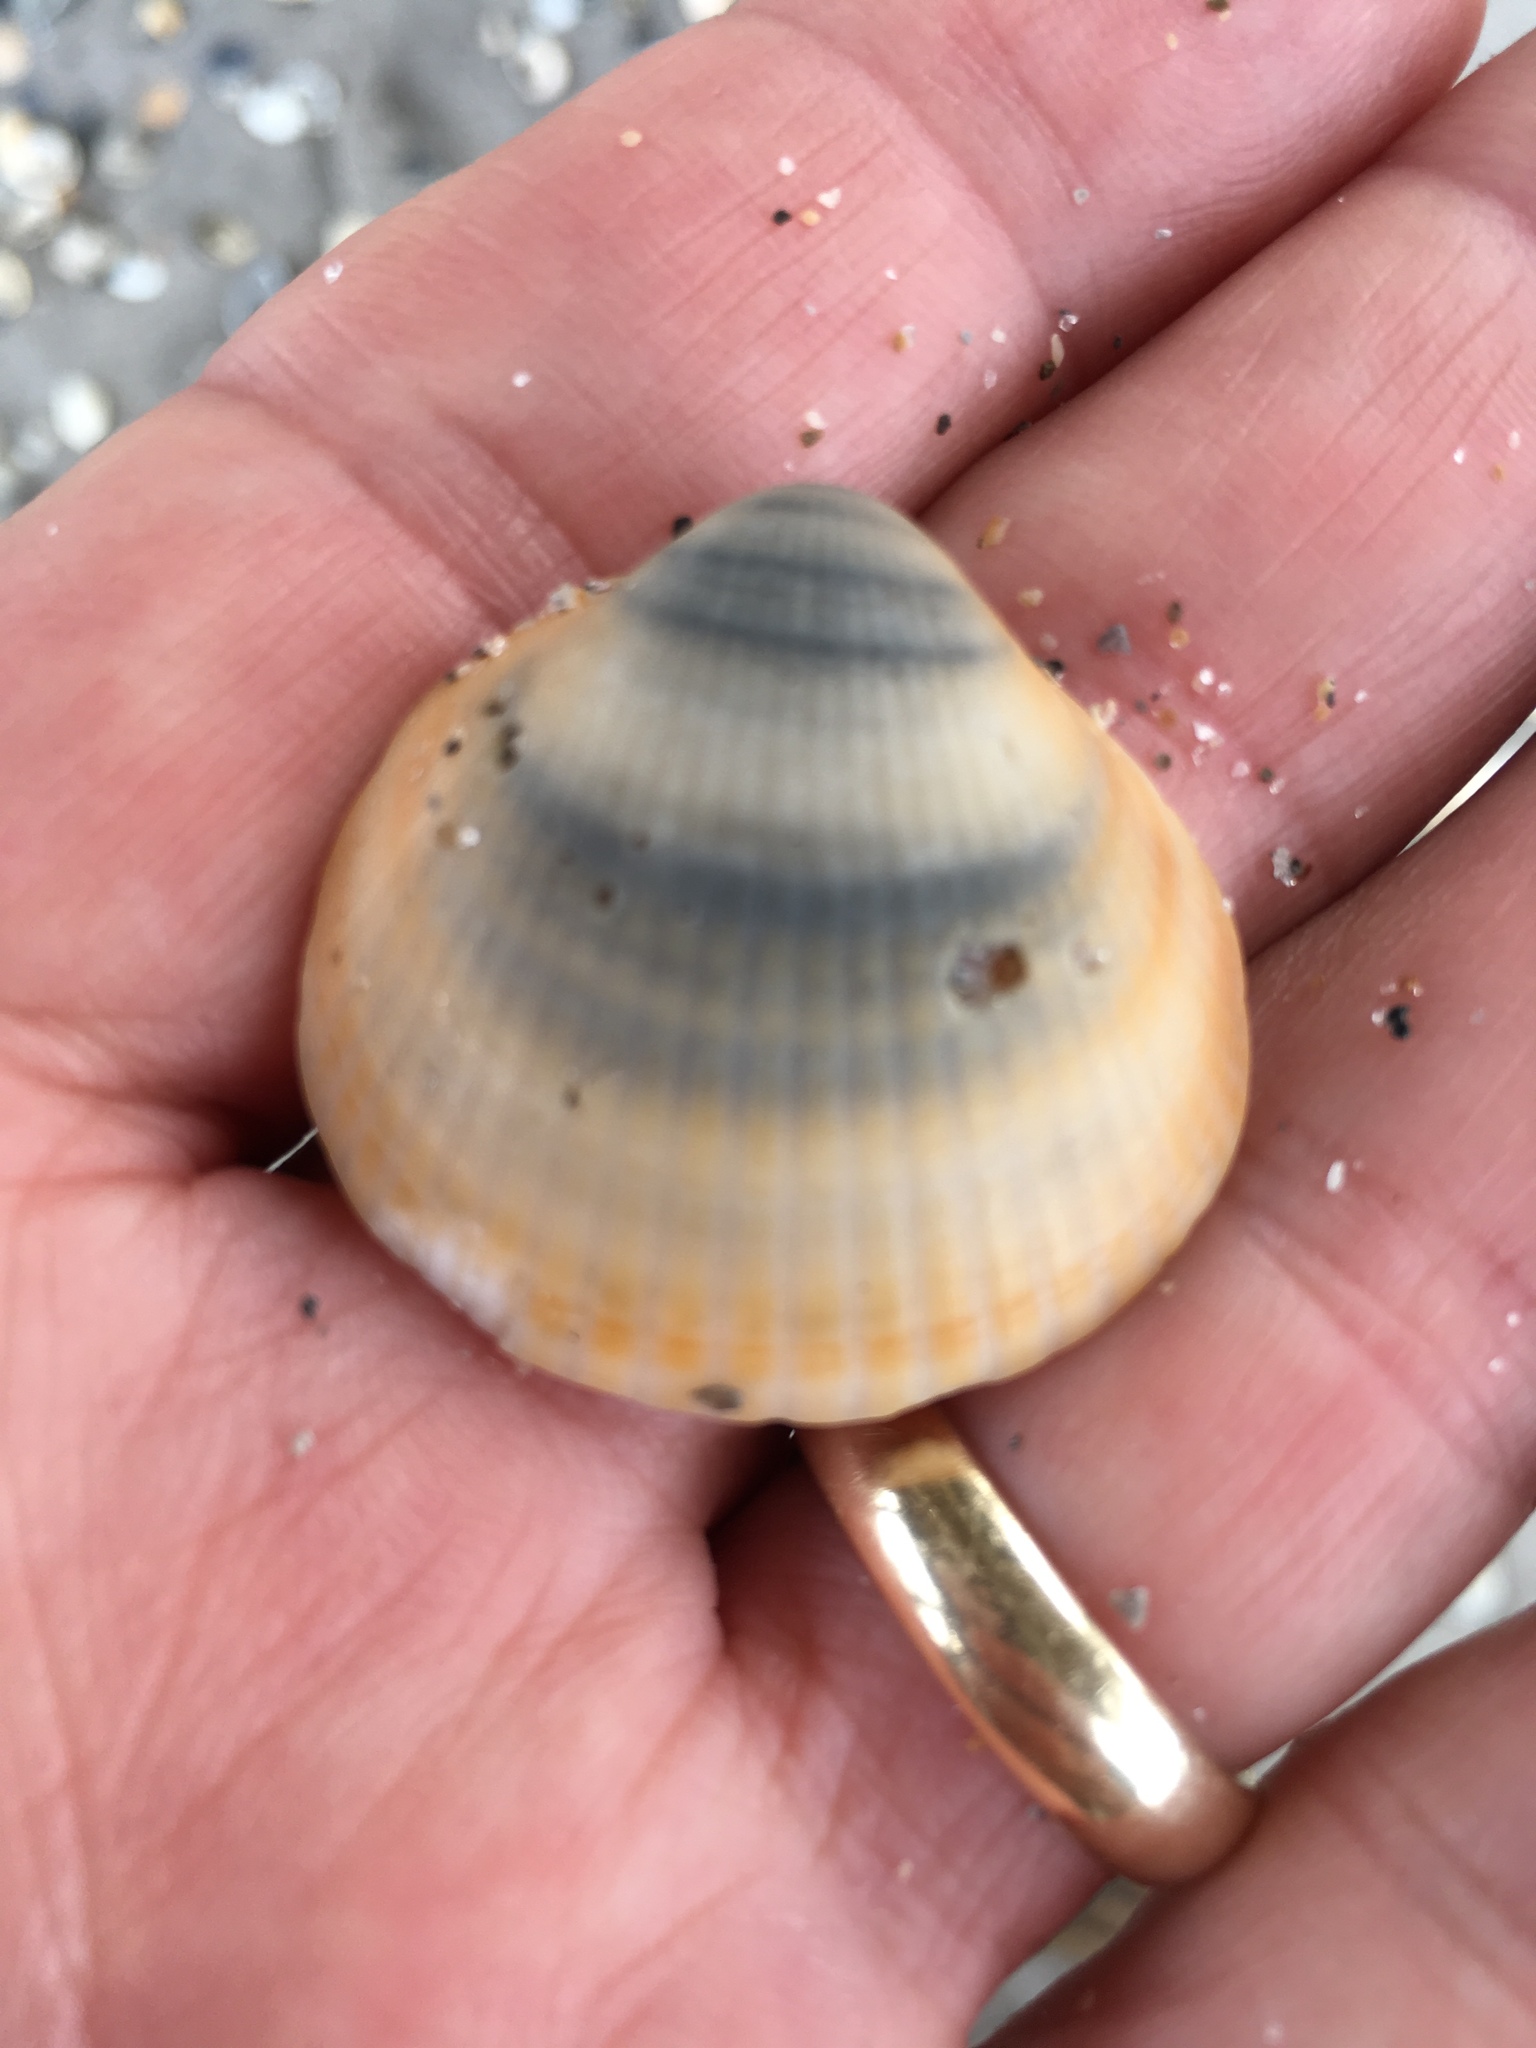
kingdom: Animalia
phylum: Mollusca
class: Bivalvia
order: Arcida
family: Glycymerididae
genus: Glycymeris
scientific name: Glycymeris spectralis
